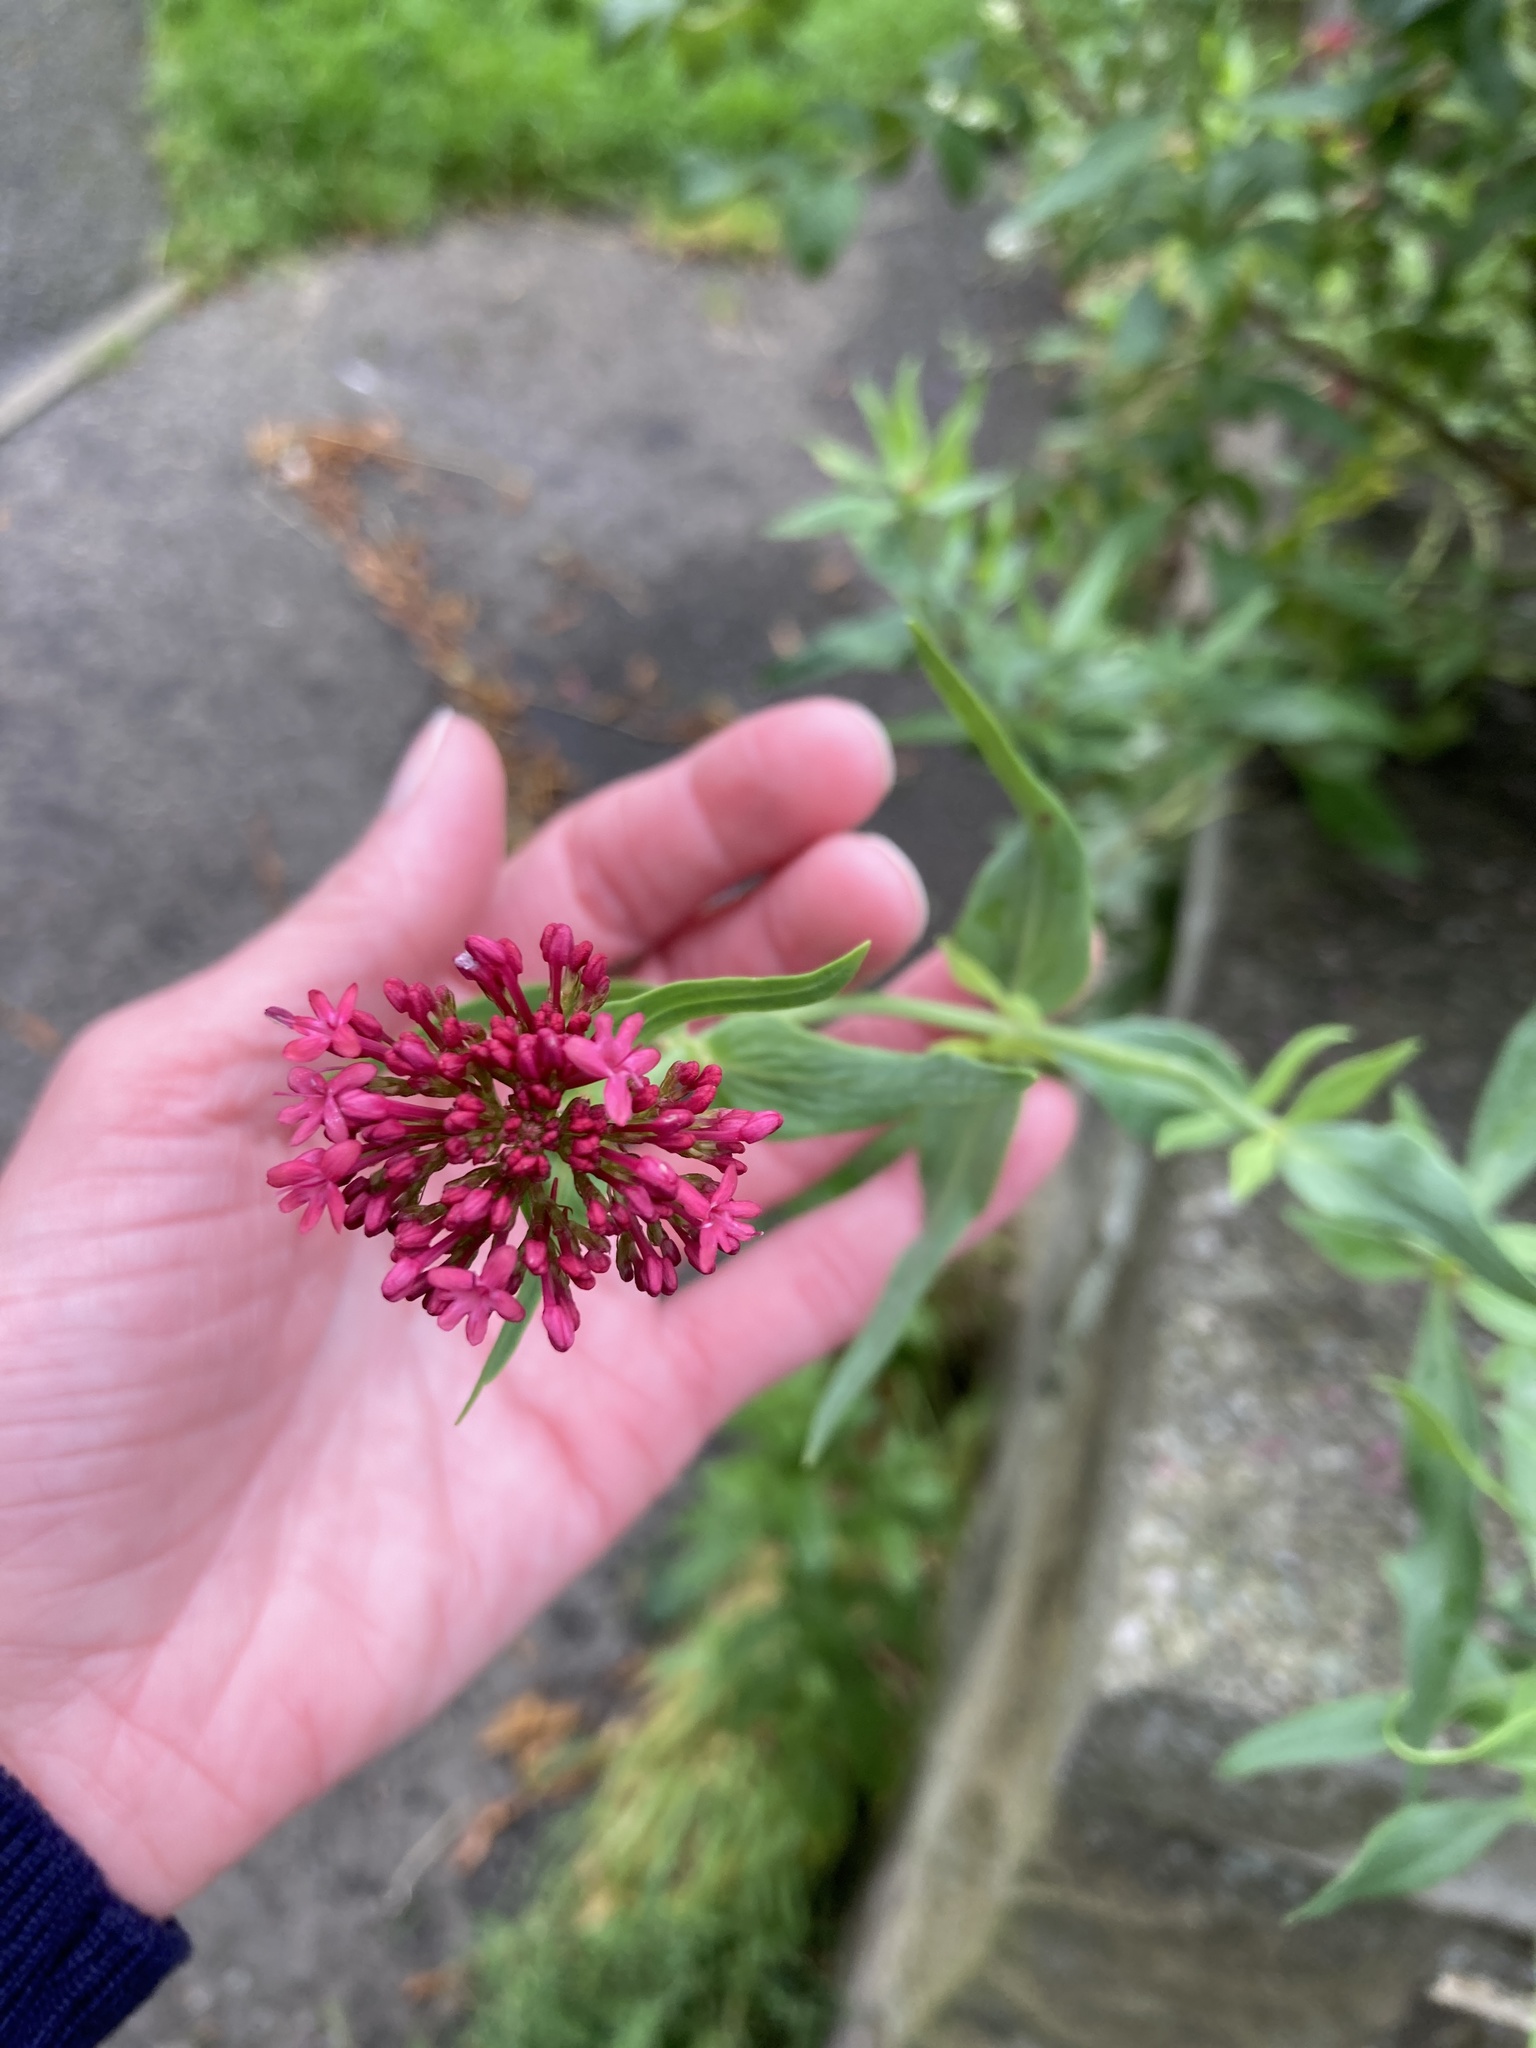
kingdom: Plantae
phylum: Tracheophyta
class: Magnoliopsida
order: Dipsacales
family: Caprifoliaceae
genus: Centranthus
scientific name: Centranthus ruber
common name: Red valerian
